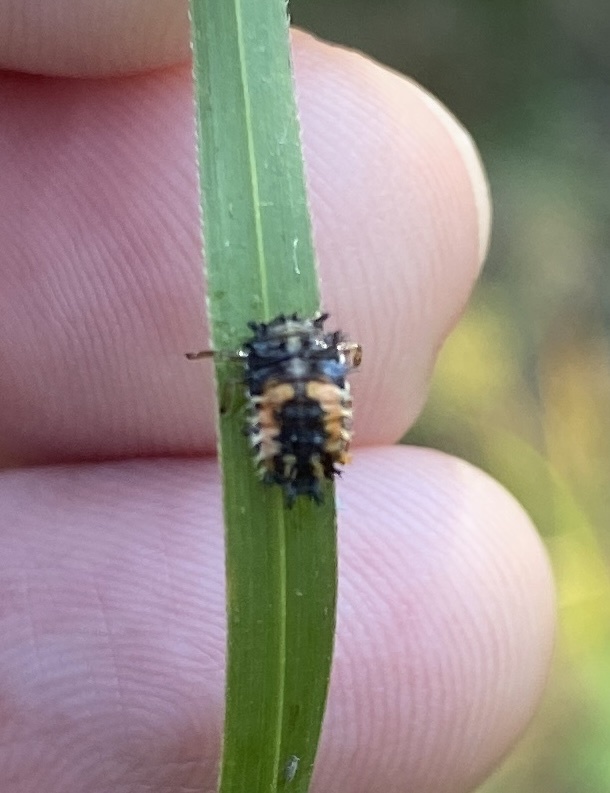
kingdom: Animalia
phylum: Arthropoda
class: Insecta
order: Coleoptera
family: Coccinellidae
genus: Harmonia
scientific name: Harmonia axyridis
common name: Harlequin ladybird
